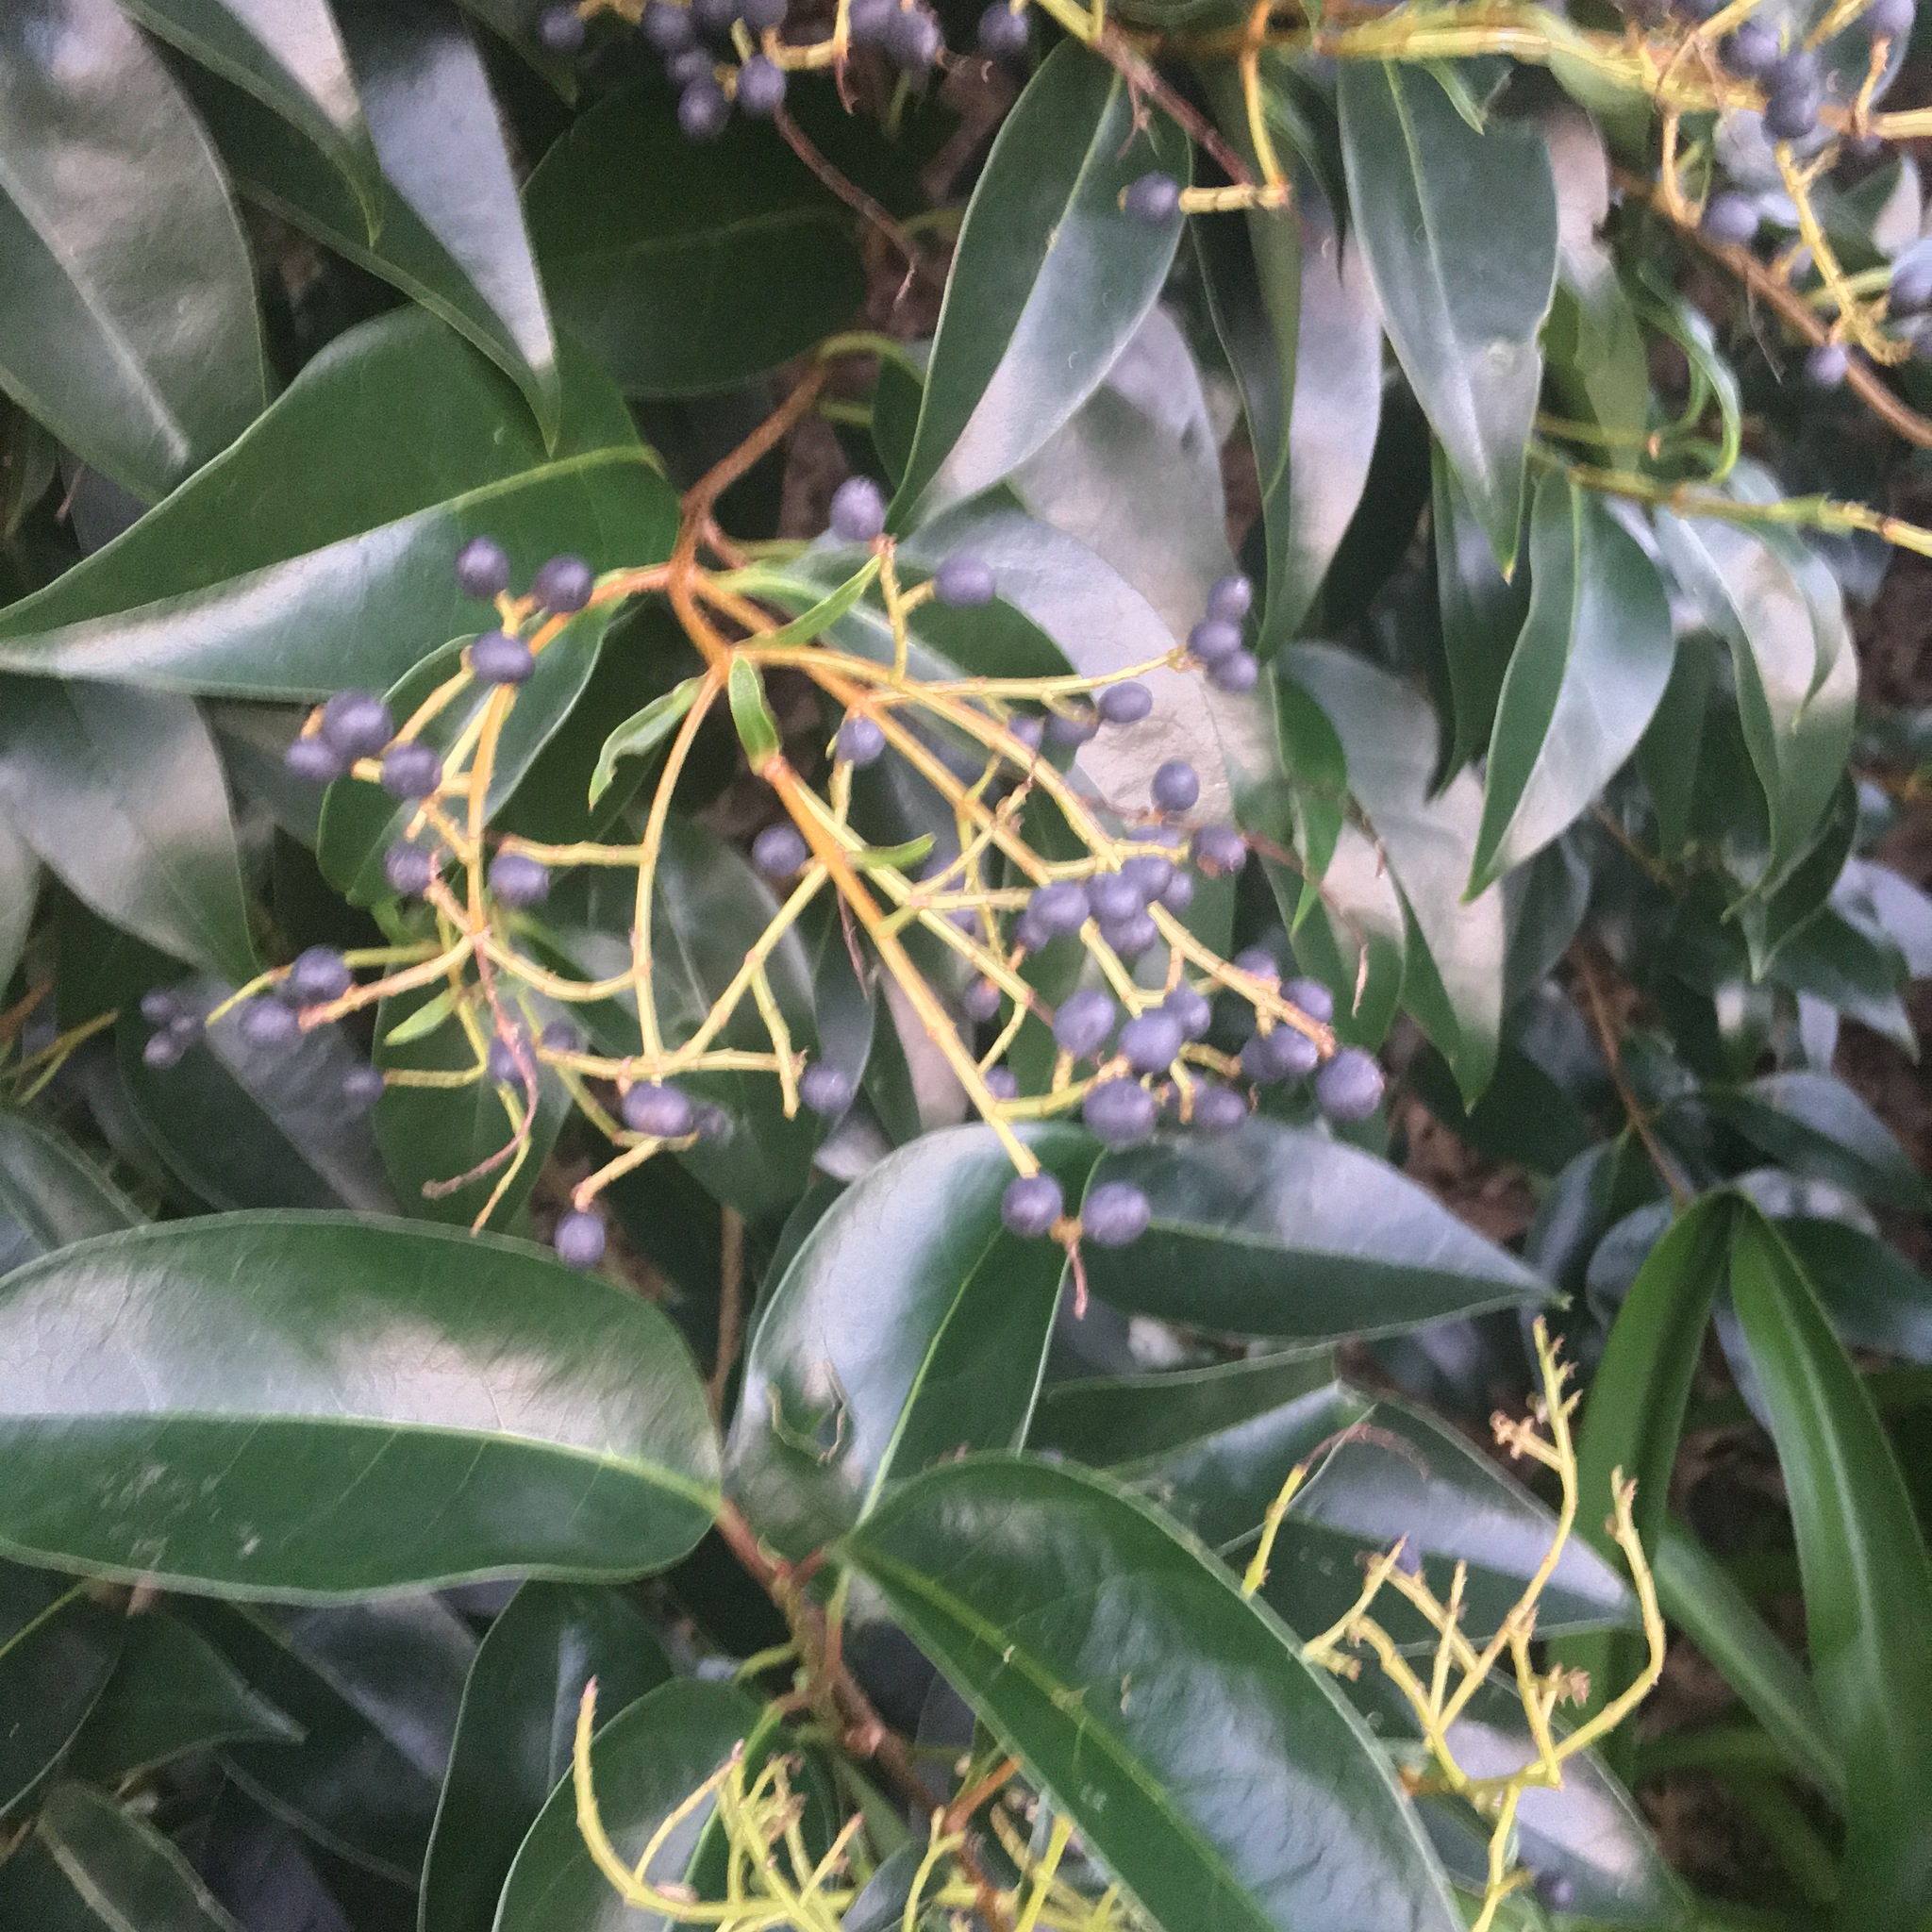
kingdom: Plantae
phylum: Tracheophyta
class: Magnoliopsida
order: Lamiales
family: Oleaceae
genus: Ligustrum
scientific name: Ligustrum lucidum
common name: Glossy privet
